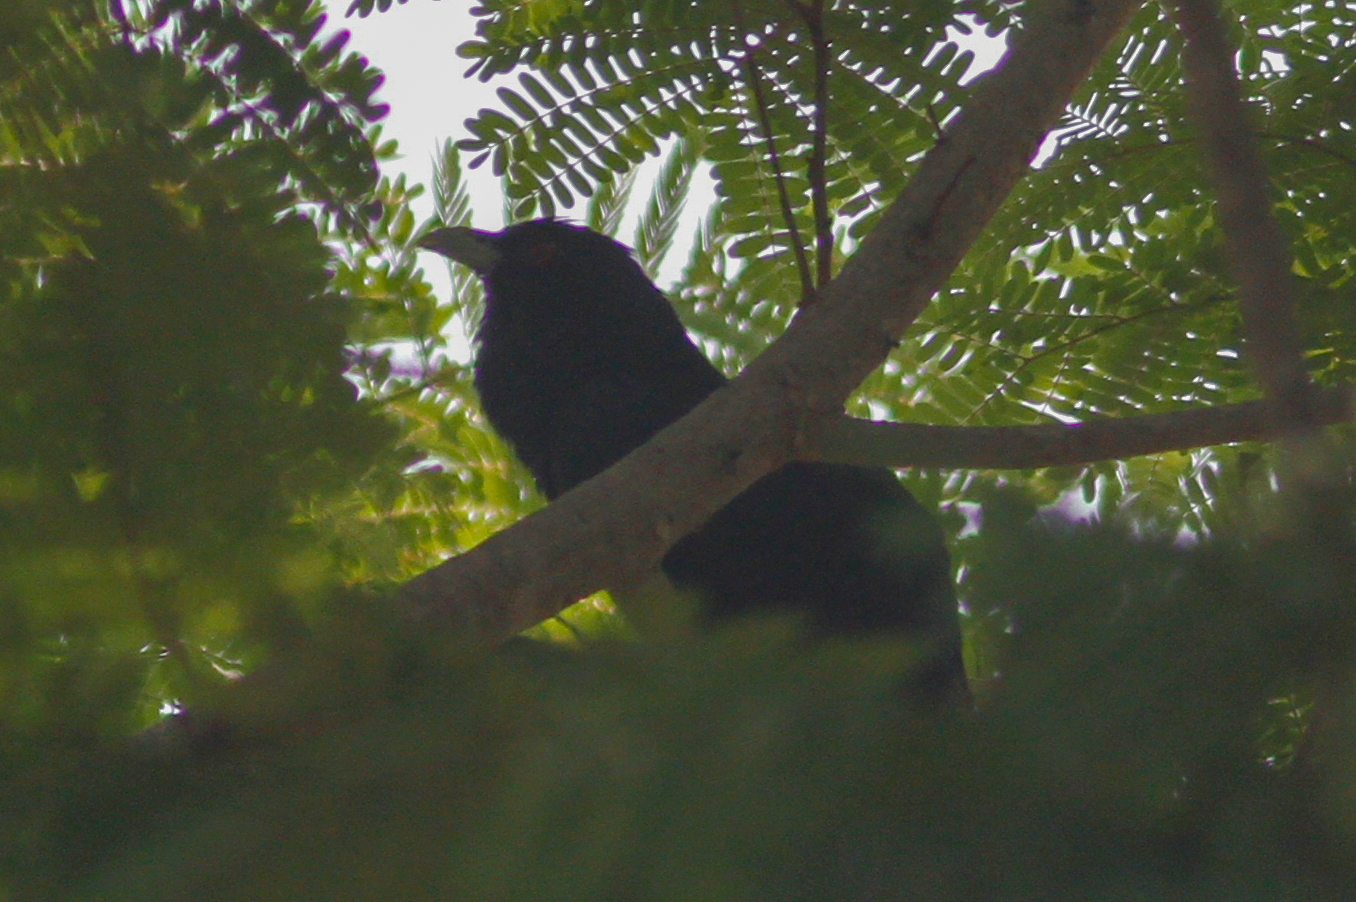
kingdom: Animalia
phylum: Chordata
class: Aves
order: Cuculiformes
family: Cuculidae
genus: Eudynamys
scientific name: Eudynamys scolopaceus
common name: Asian koel
